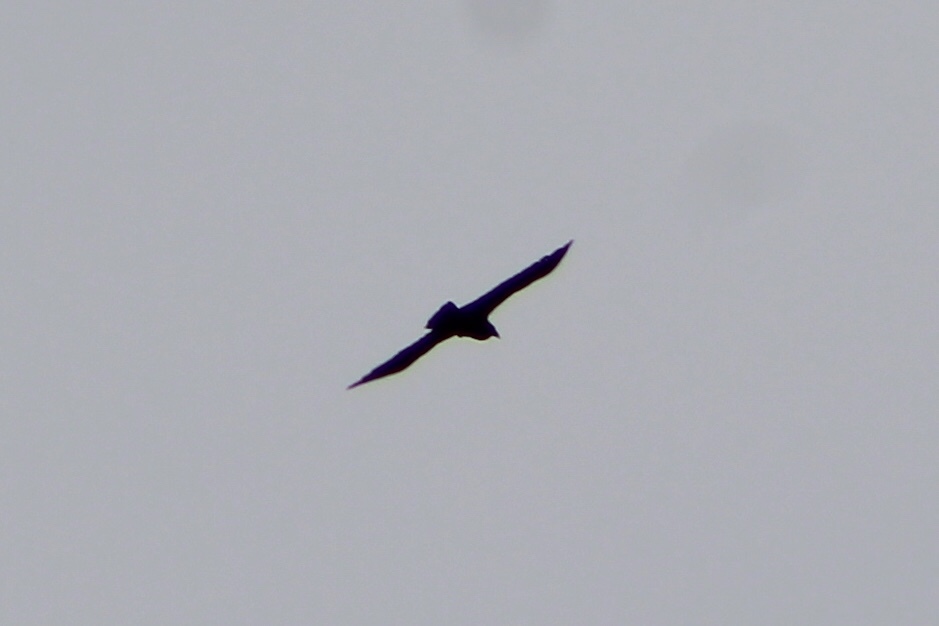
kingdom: Animalia
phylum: Chordata
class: Aves
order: Passeriformes
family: Corvidae
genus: Corvus
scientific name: Corvus corax
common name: Common raven
